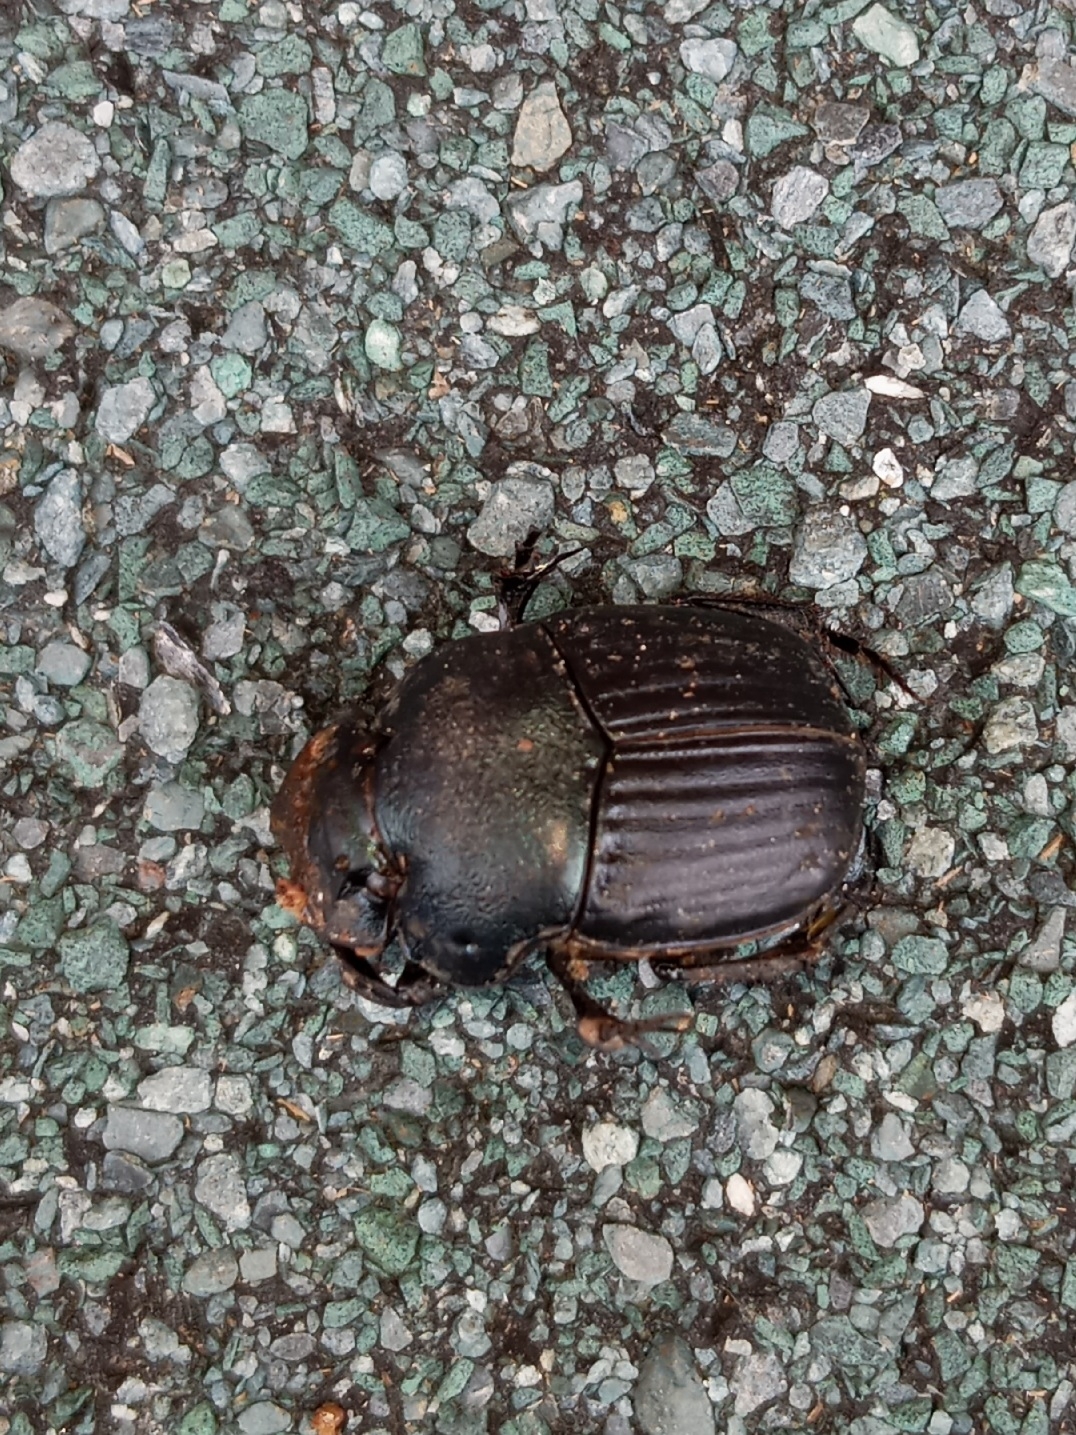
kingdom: Animalia
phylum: Arthropoda
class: Insecta
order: Coleoptera
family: Scarabaeidae
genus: Phanaeus
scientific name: Phanaeus igneus
